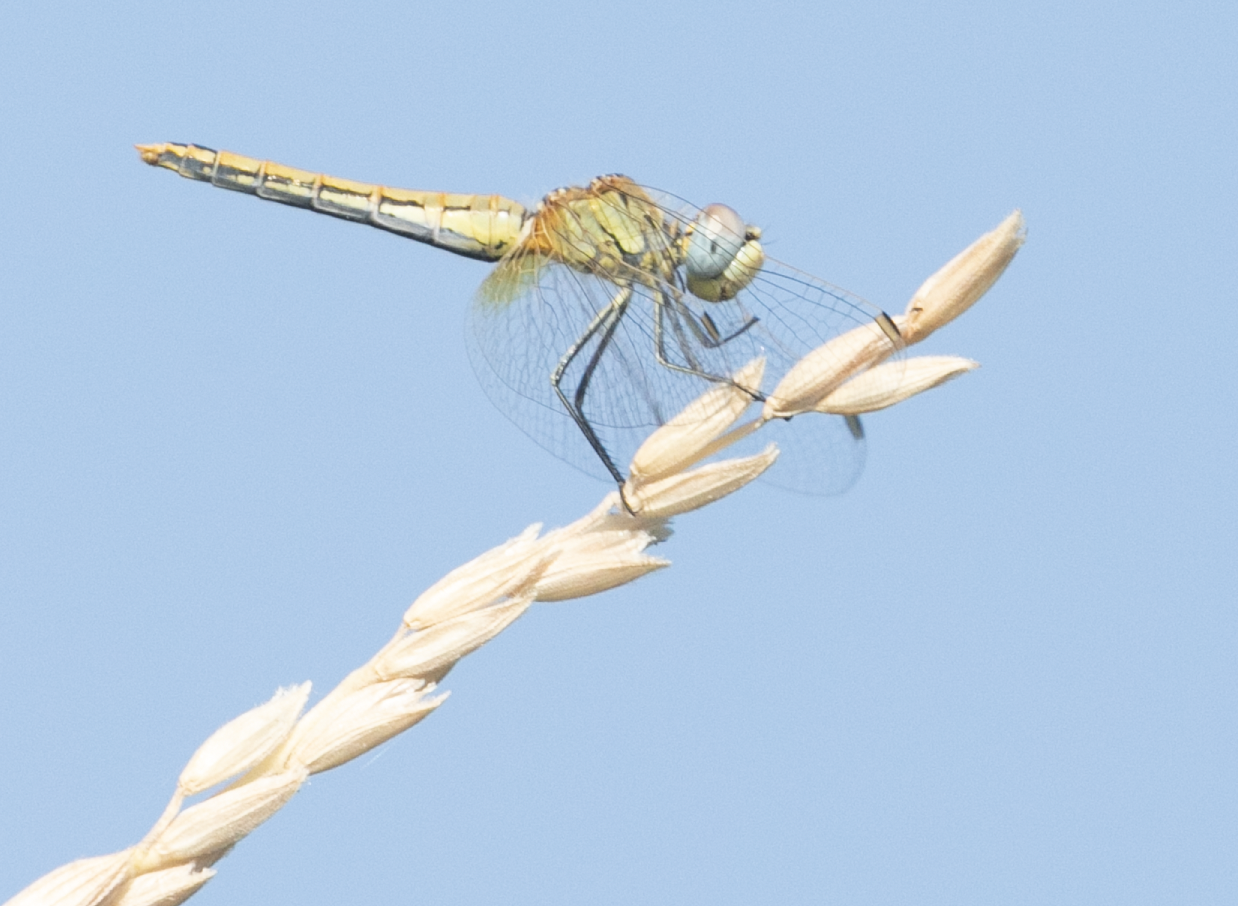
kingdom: Animalia
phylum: Arthropoda
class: Insecta
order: Odonata
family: Libellulidae
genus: Sympetrum
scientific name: Sympetrum fonscolombii
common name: Red-veined darter
